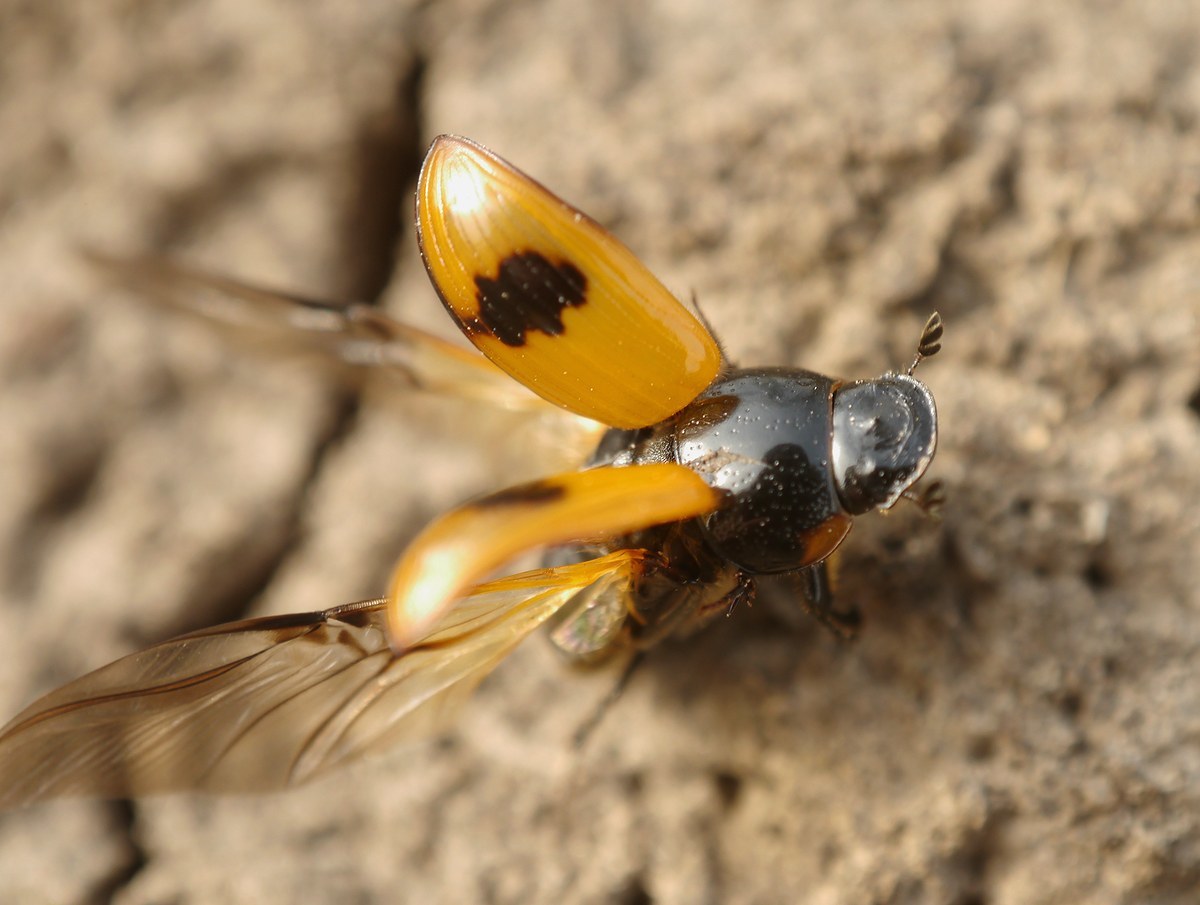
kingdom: Animalia
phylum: Arthropoda
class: Insecta
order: Coleoptera
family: Scarabaeidae
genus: Aphodius
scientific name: Aphodius coniugatus
